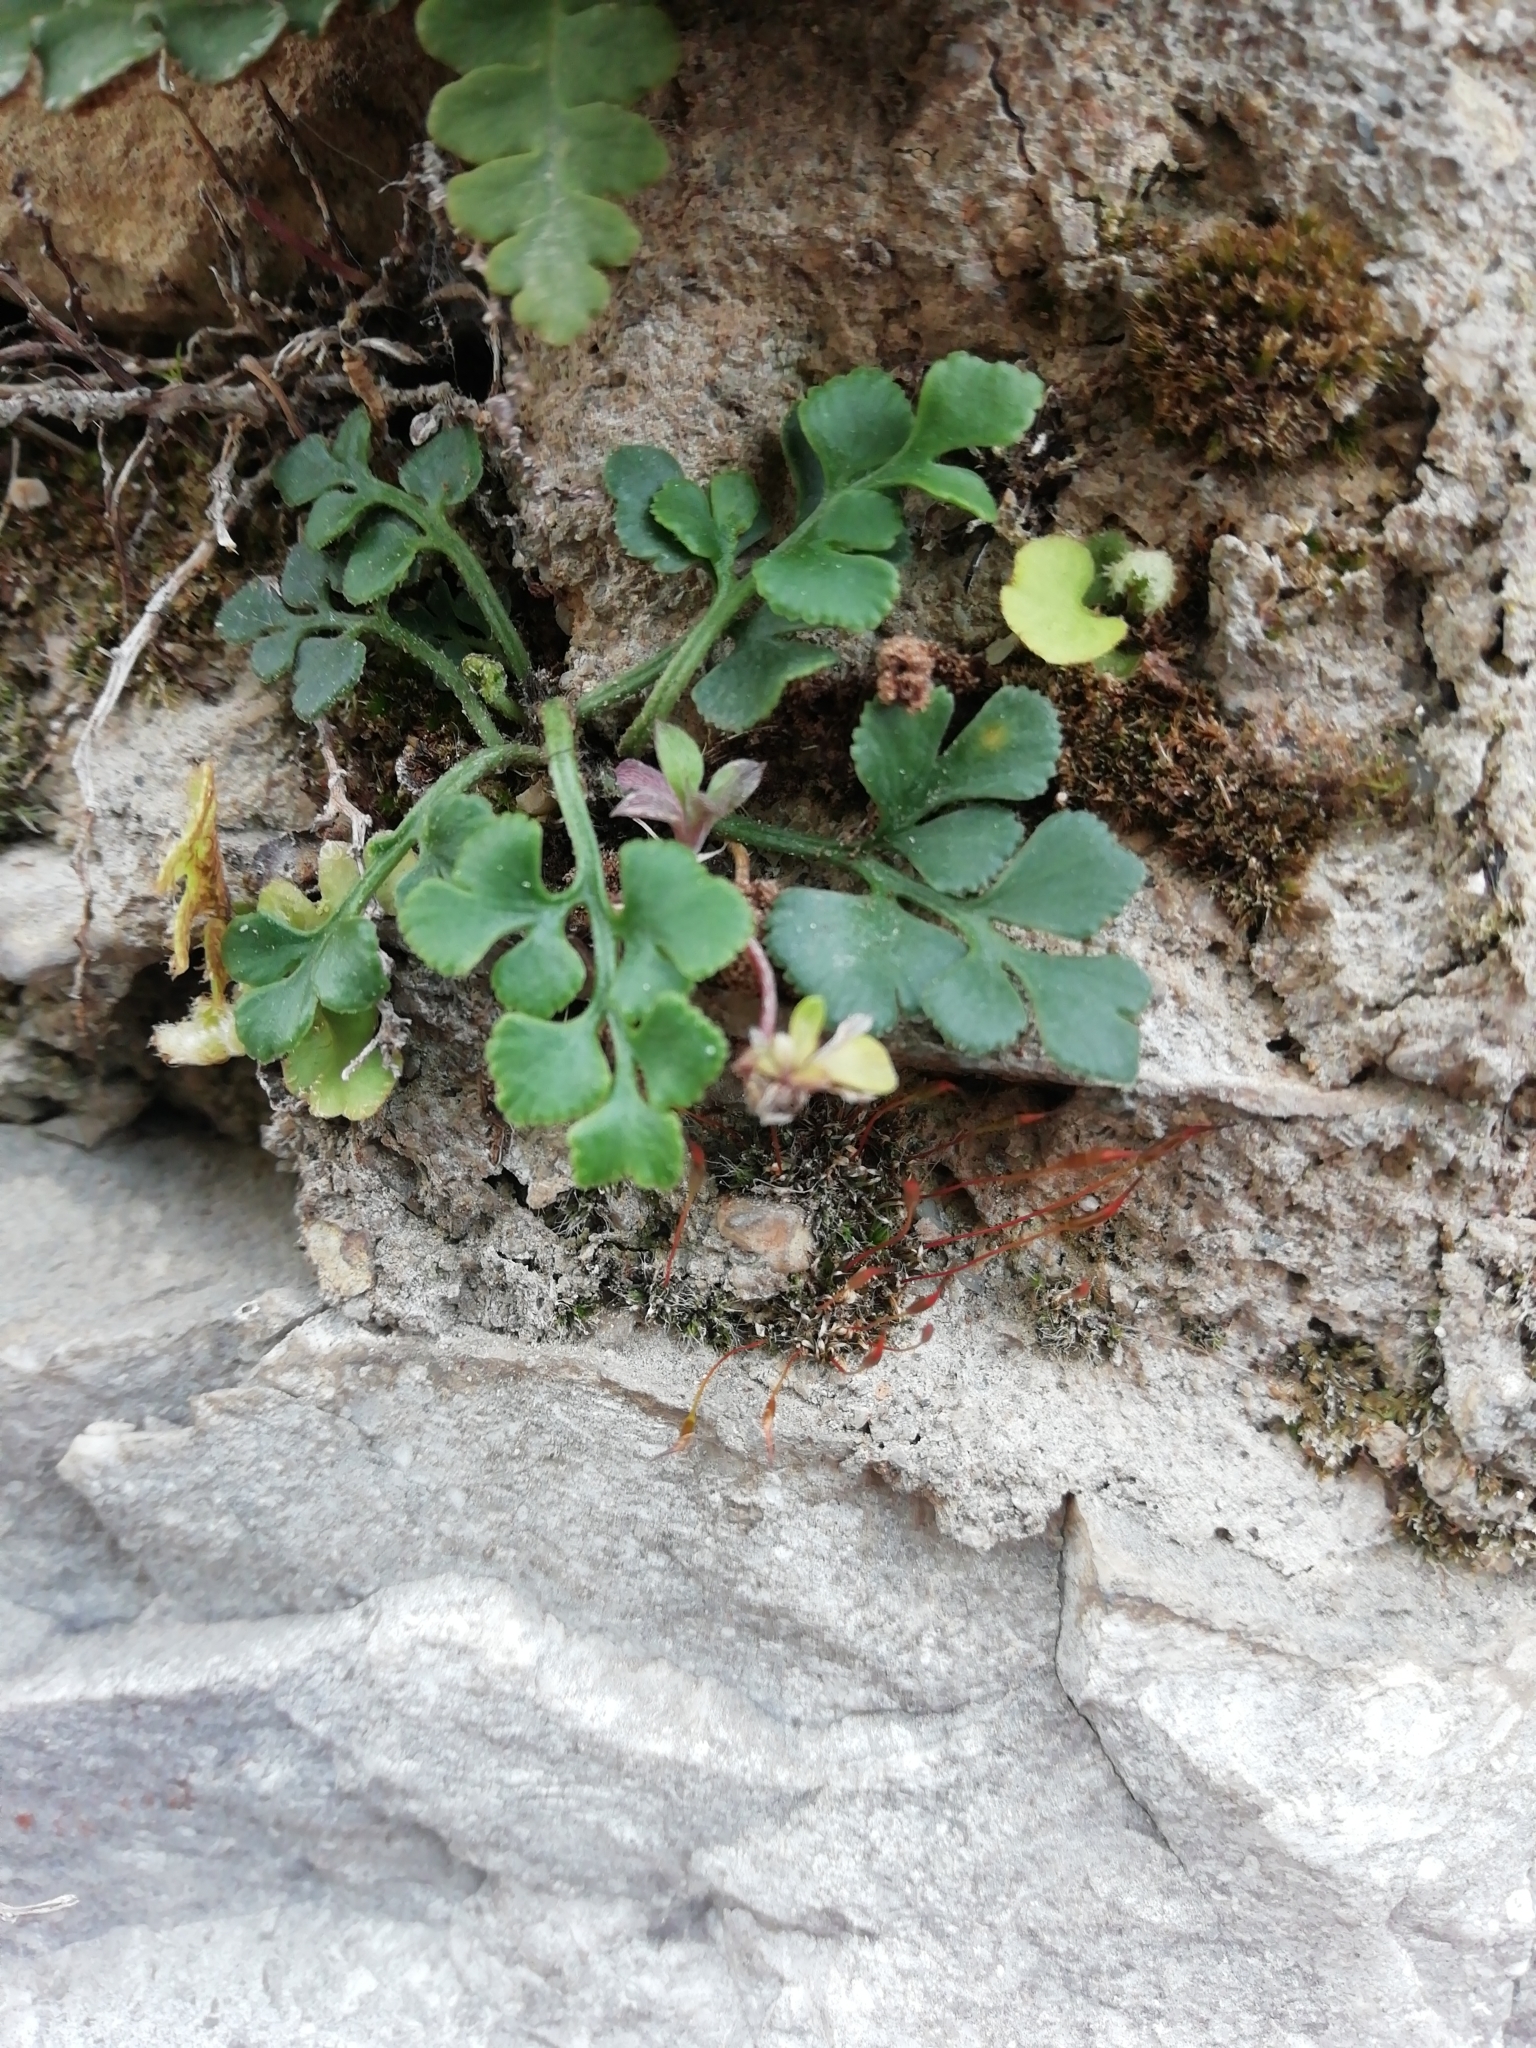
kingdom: Plantae
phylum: Tracheophyta
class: Polypodiopsida
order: Polypodiales
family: Aspleniaceae
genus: Asplenium
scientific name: Asplenium ruta-muraria
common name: Wall-rue
